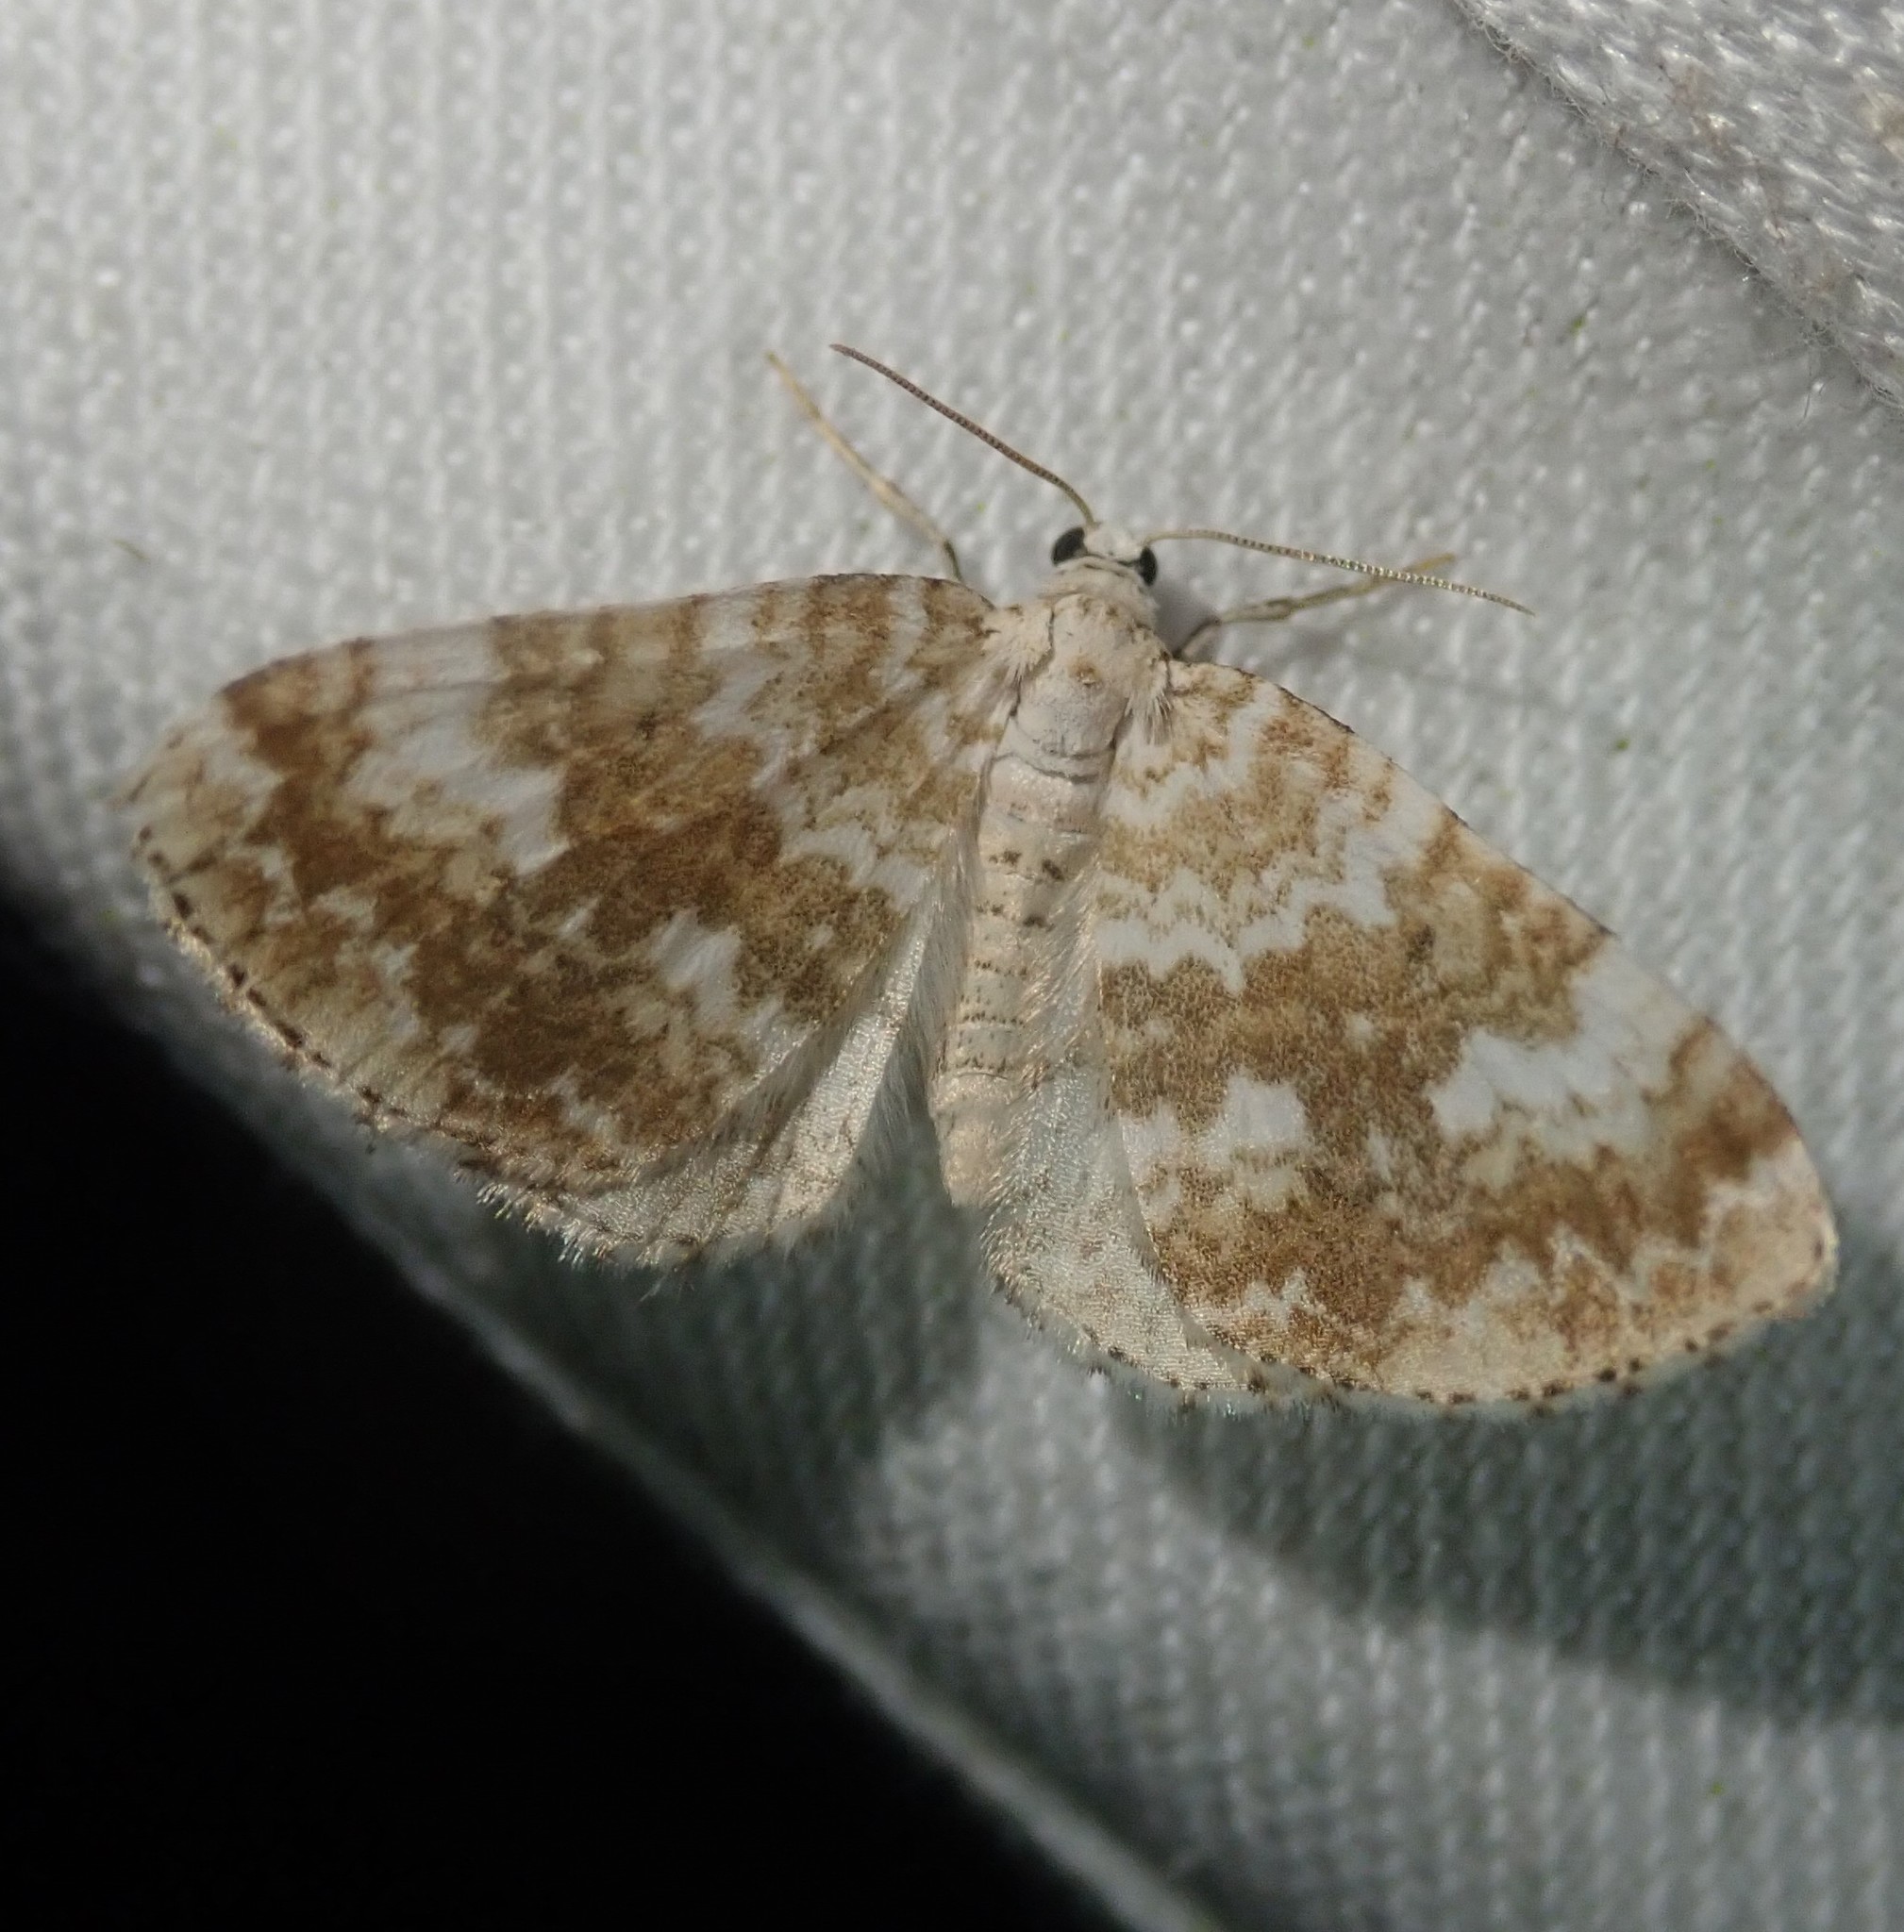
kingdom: Animalia
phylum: Arthropoda
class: Insecta
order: Lepidoptera
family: Geometridae
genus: Perizoma
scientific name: Perizoma flavofasciata
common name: Sandy carpet
